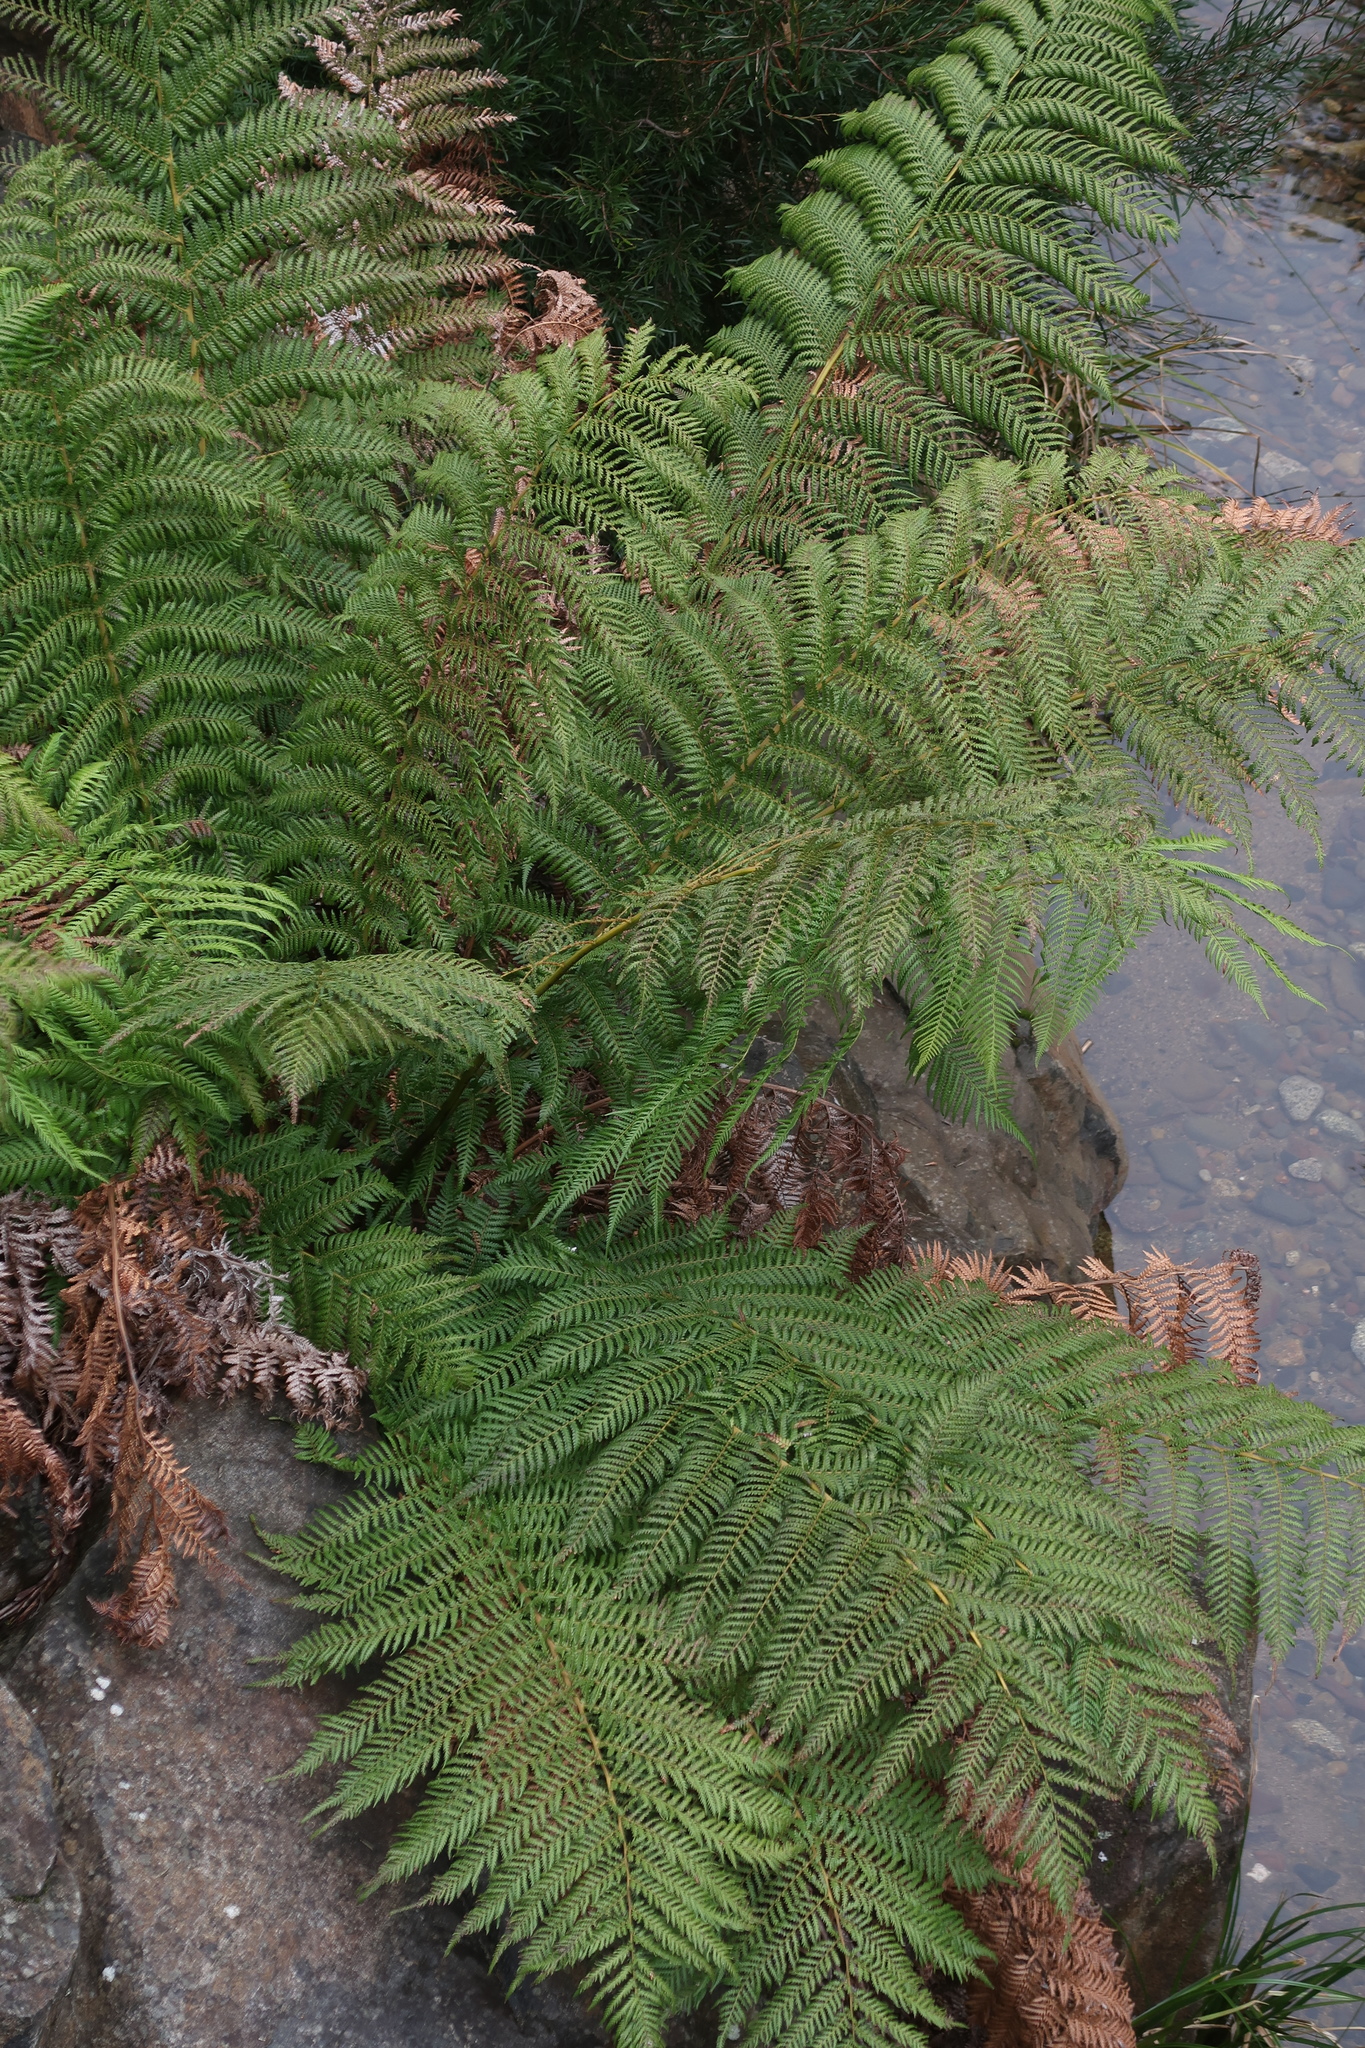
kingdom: Plantae
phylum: Tracheophyta
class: Polypodiopsida
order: Cyatheales
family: Dicksoniaceae
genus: Dicksonia
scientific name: Dicksonia antarctica
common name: Australian treefern
